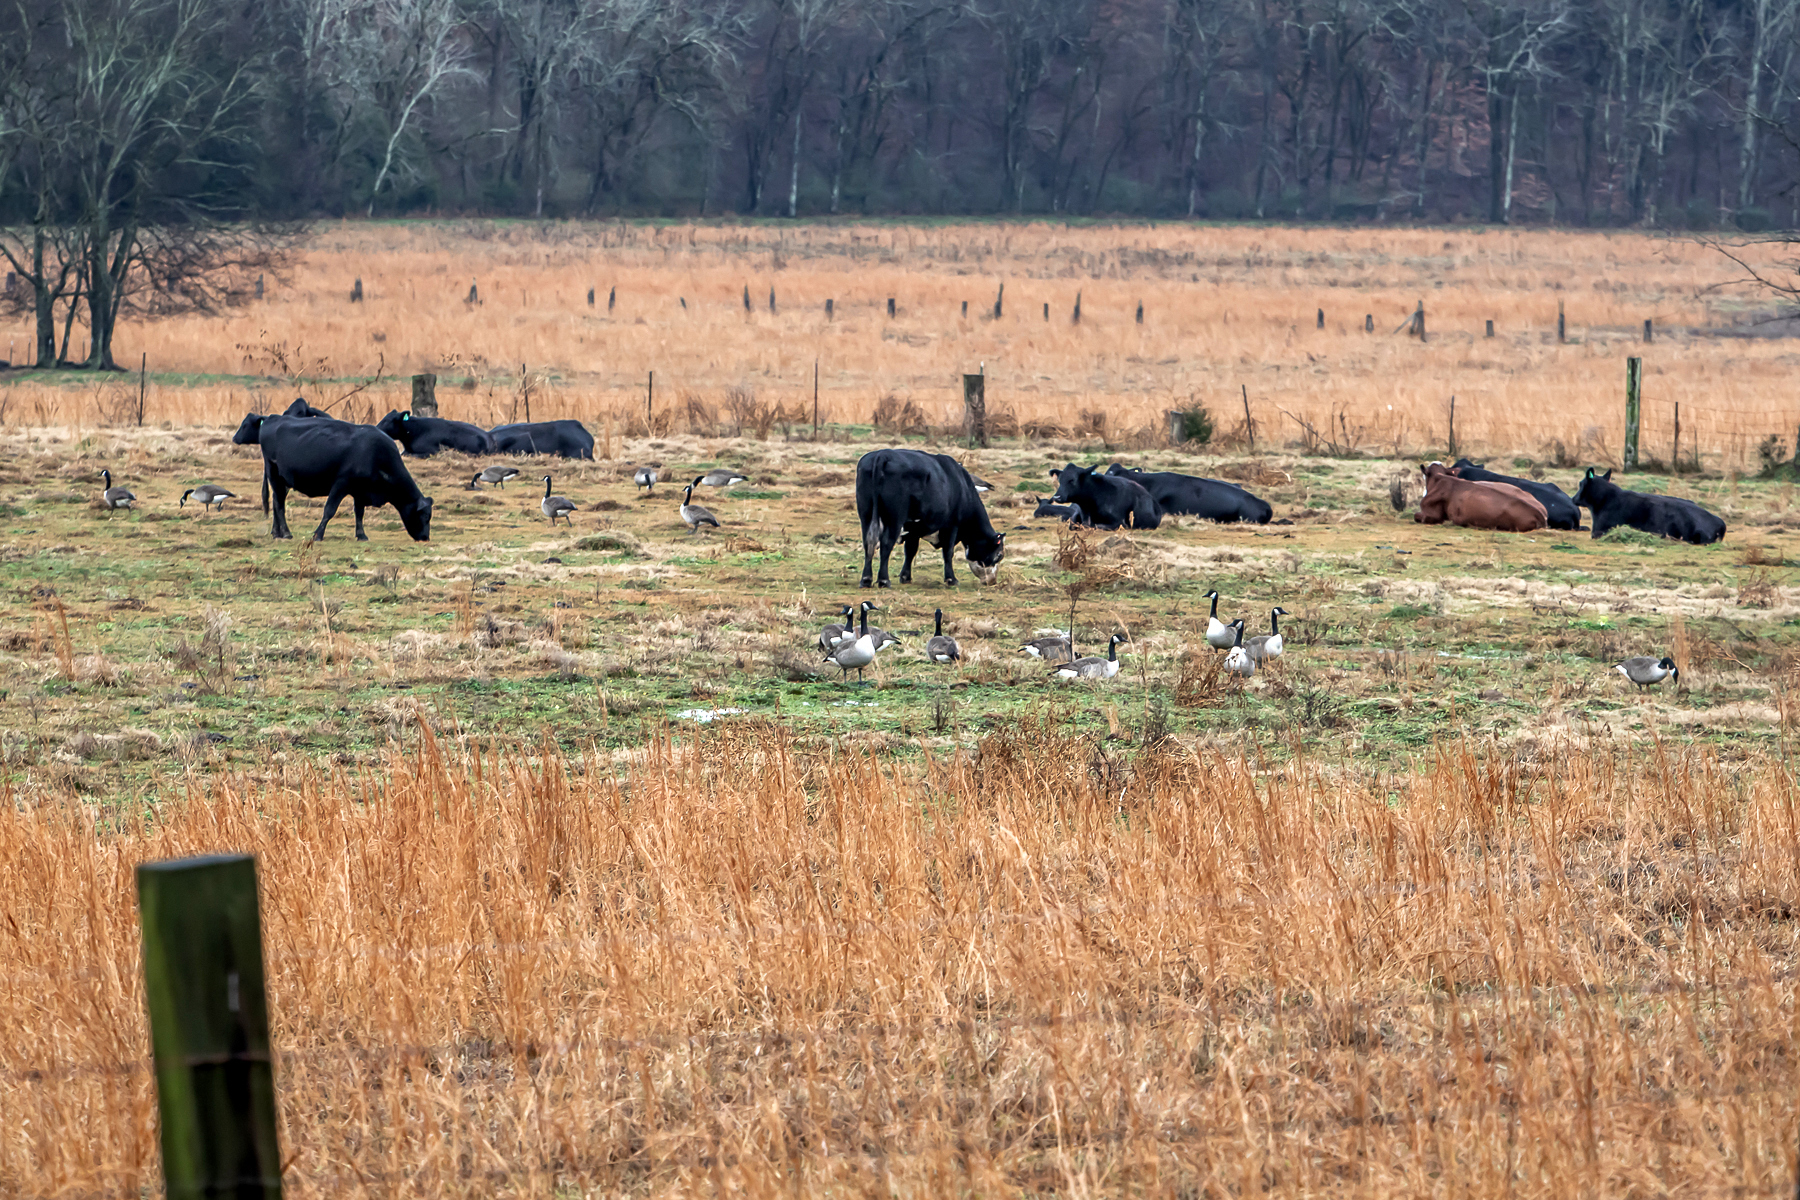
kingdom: Animalia
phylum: Chordata
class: Aves
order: Anseriformes
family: Anatidae
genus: Branta
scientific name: Branta canadensis
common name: Canada goose
